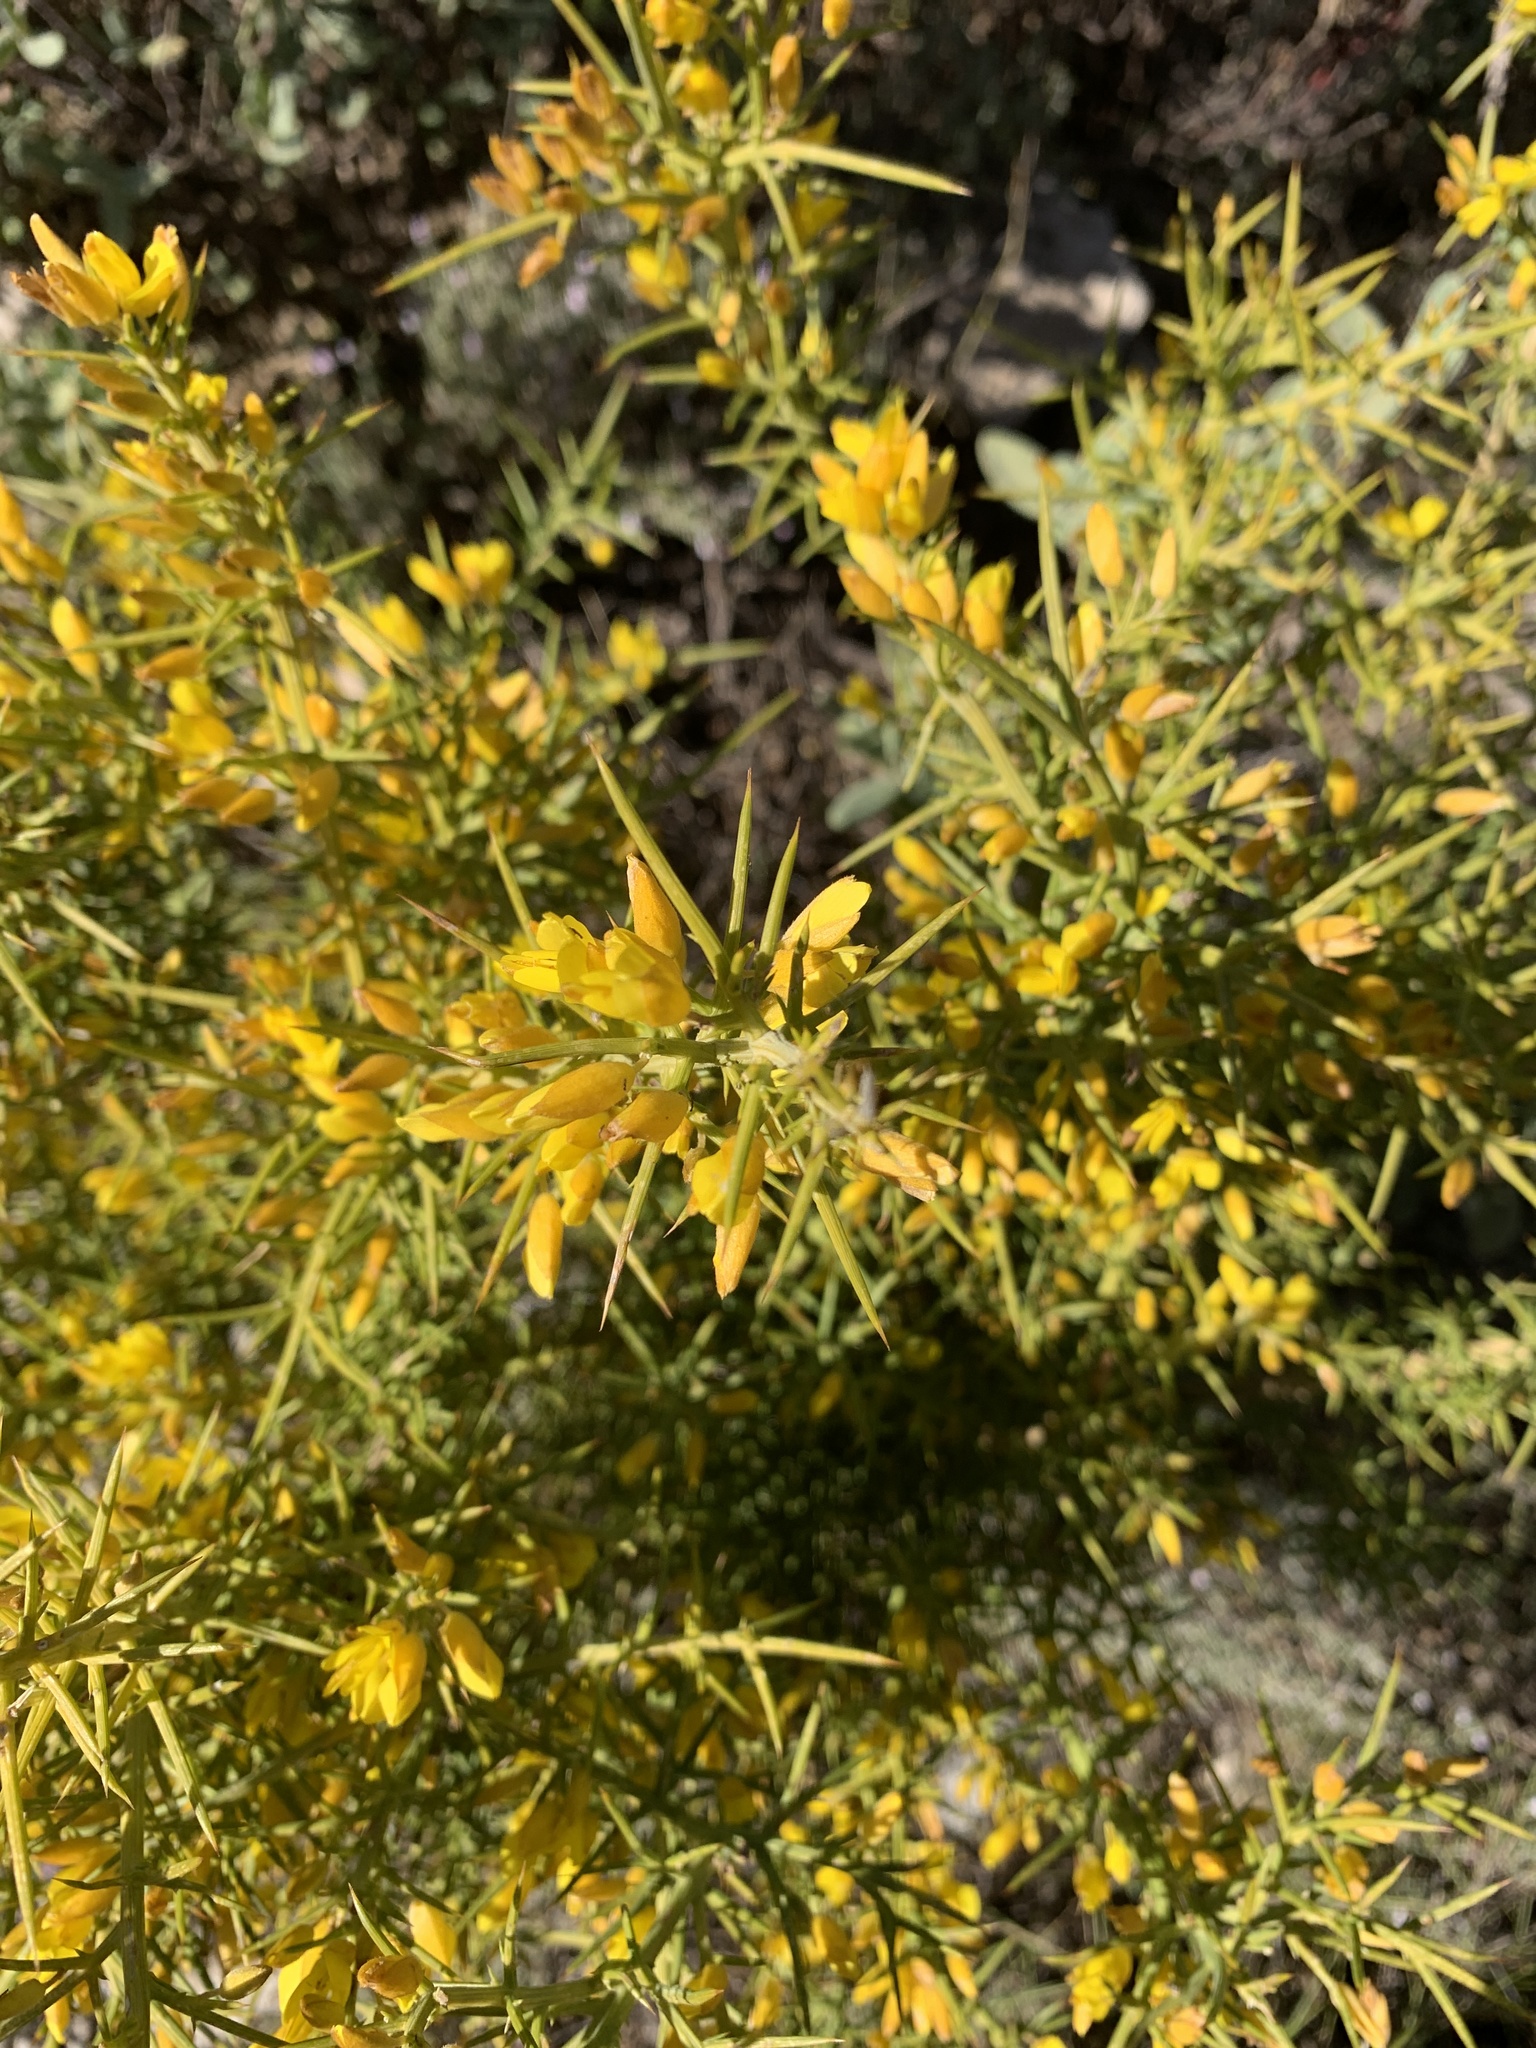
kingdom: Plantae
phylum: Tracheophyta
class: Magnoliopsida
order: Fabales
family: Fabaceae
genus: Ulex
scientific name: Ulex parviflorus
